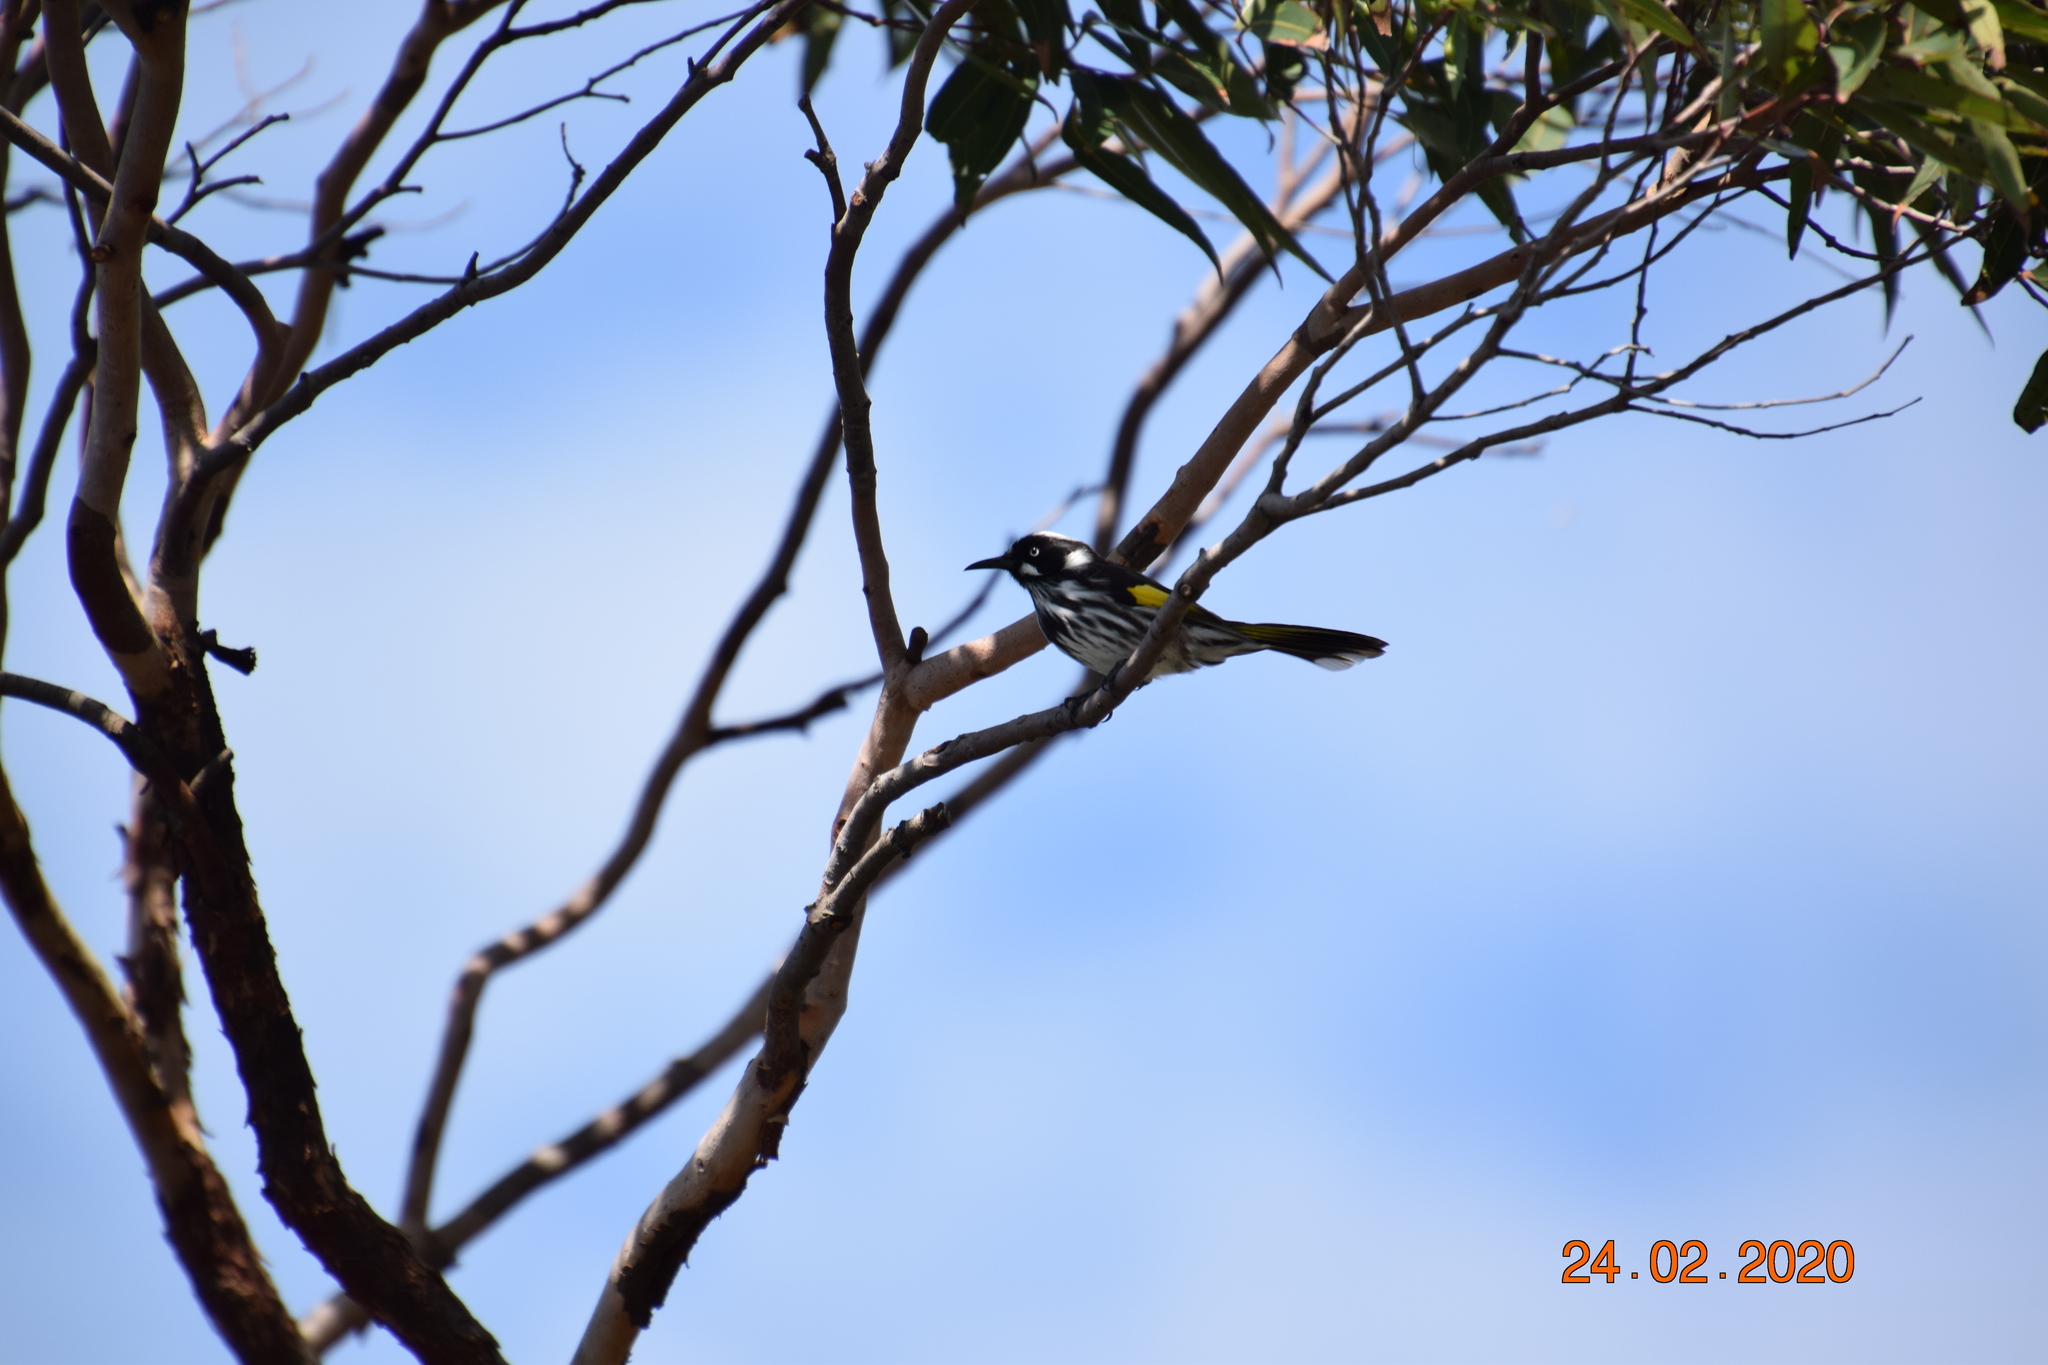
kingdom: Animalia
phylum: Chordata
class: Aves
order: Passeriformes
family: Meliphagidae
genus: Phylidonyris
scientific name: Phylidonyris novaehollandiae
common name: New holland honeyeater
